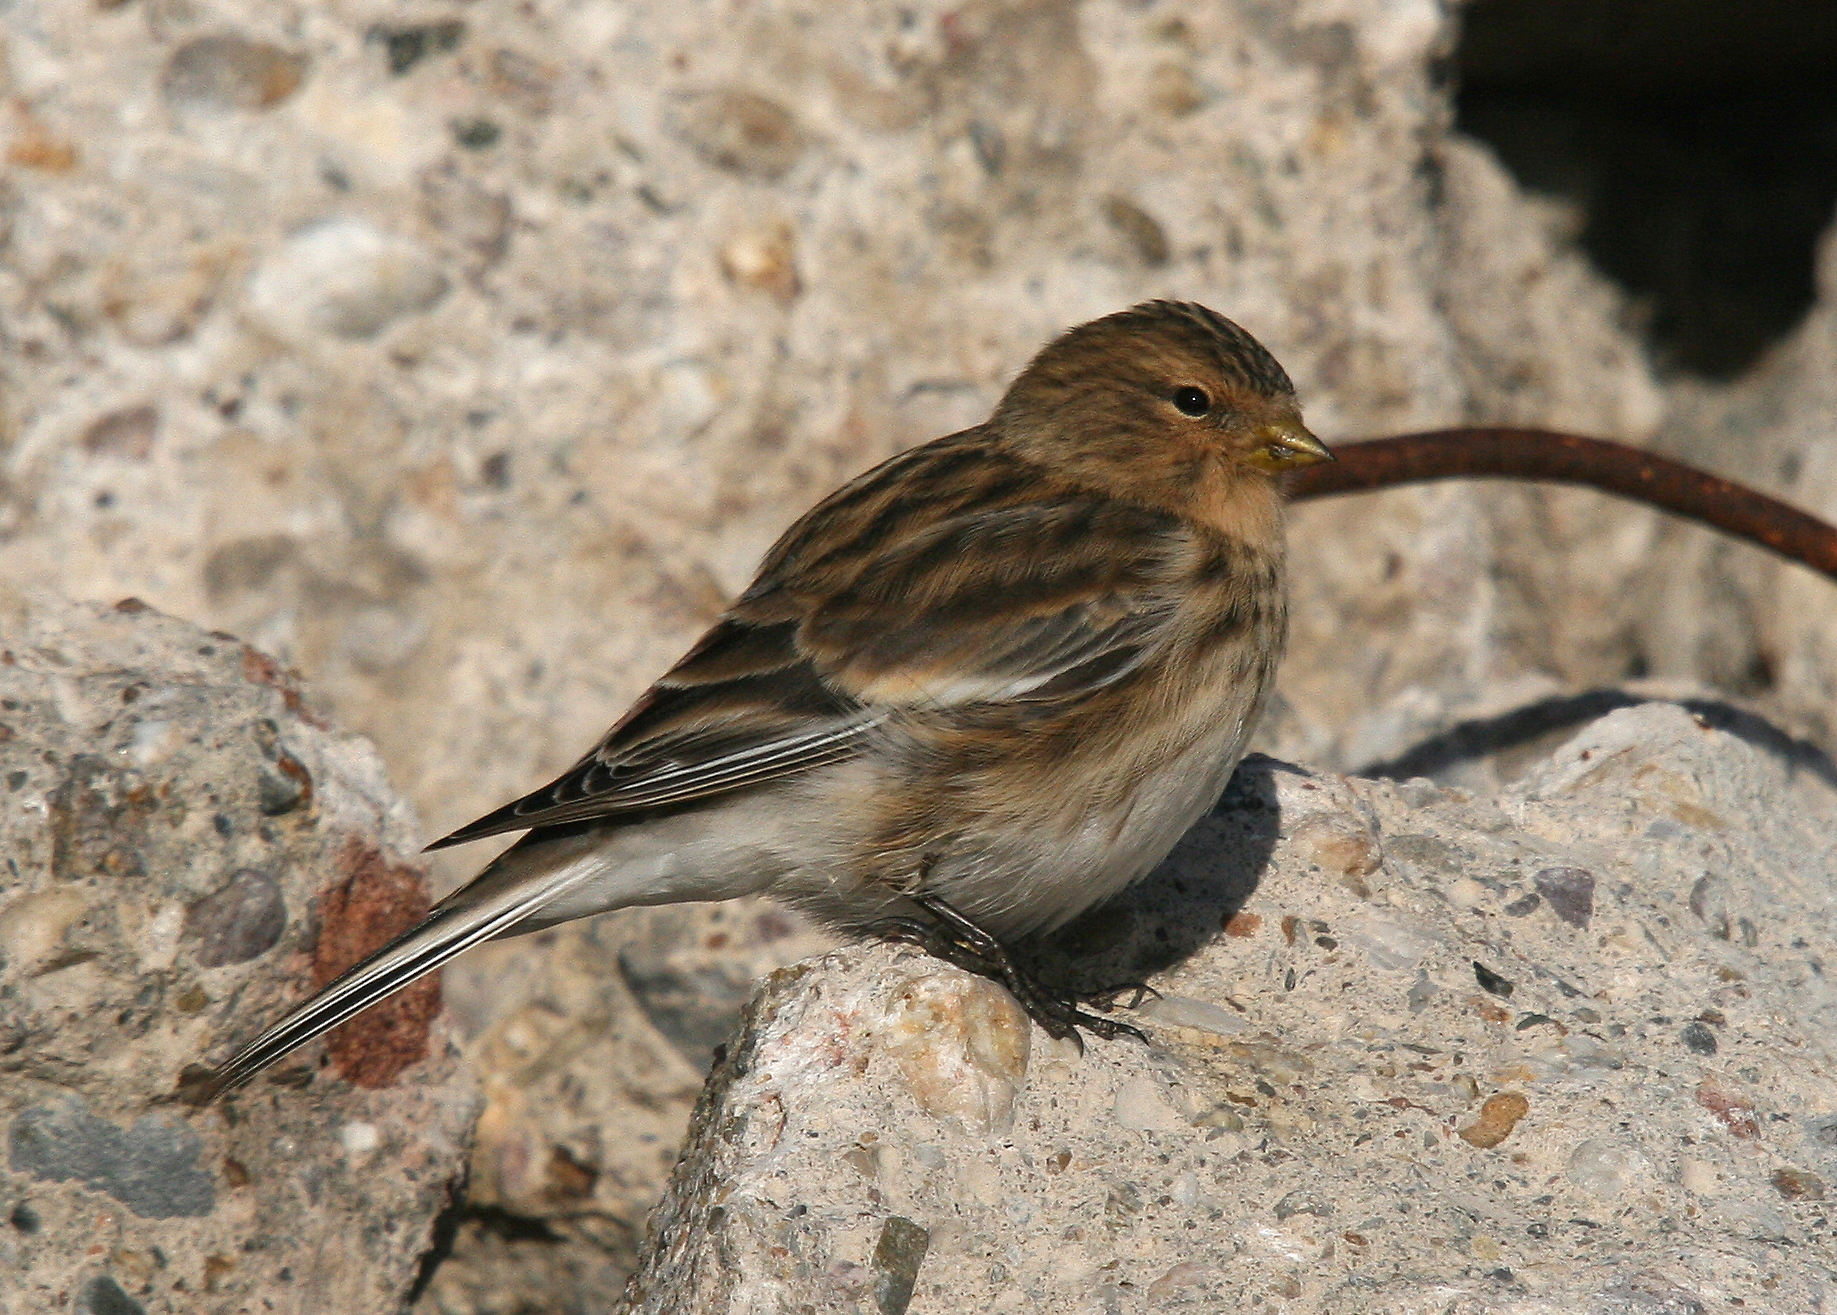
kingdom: Animalia
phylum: Chordata
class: Aves
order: Passeriformes
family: Fringillidae
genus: Linaria
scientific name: Linaria flavirostris
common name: Twite
